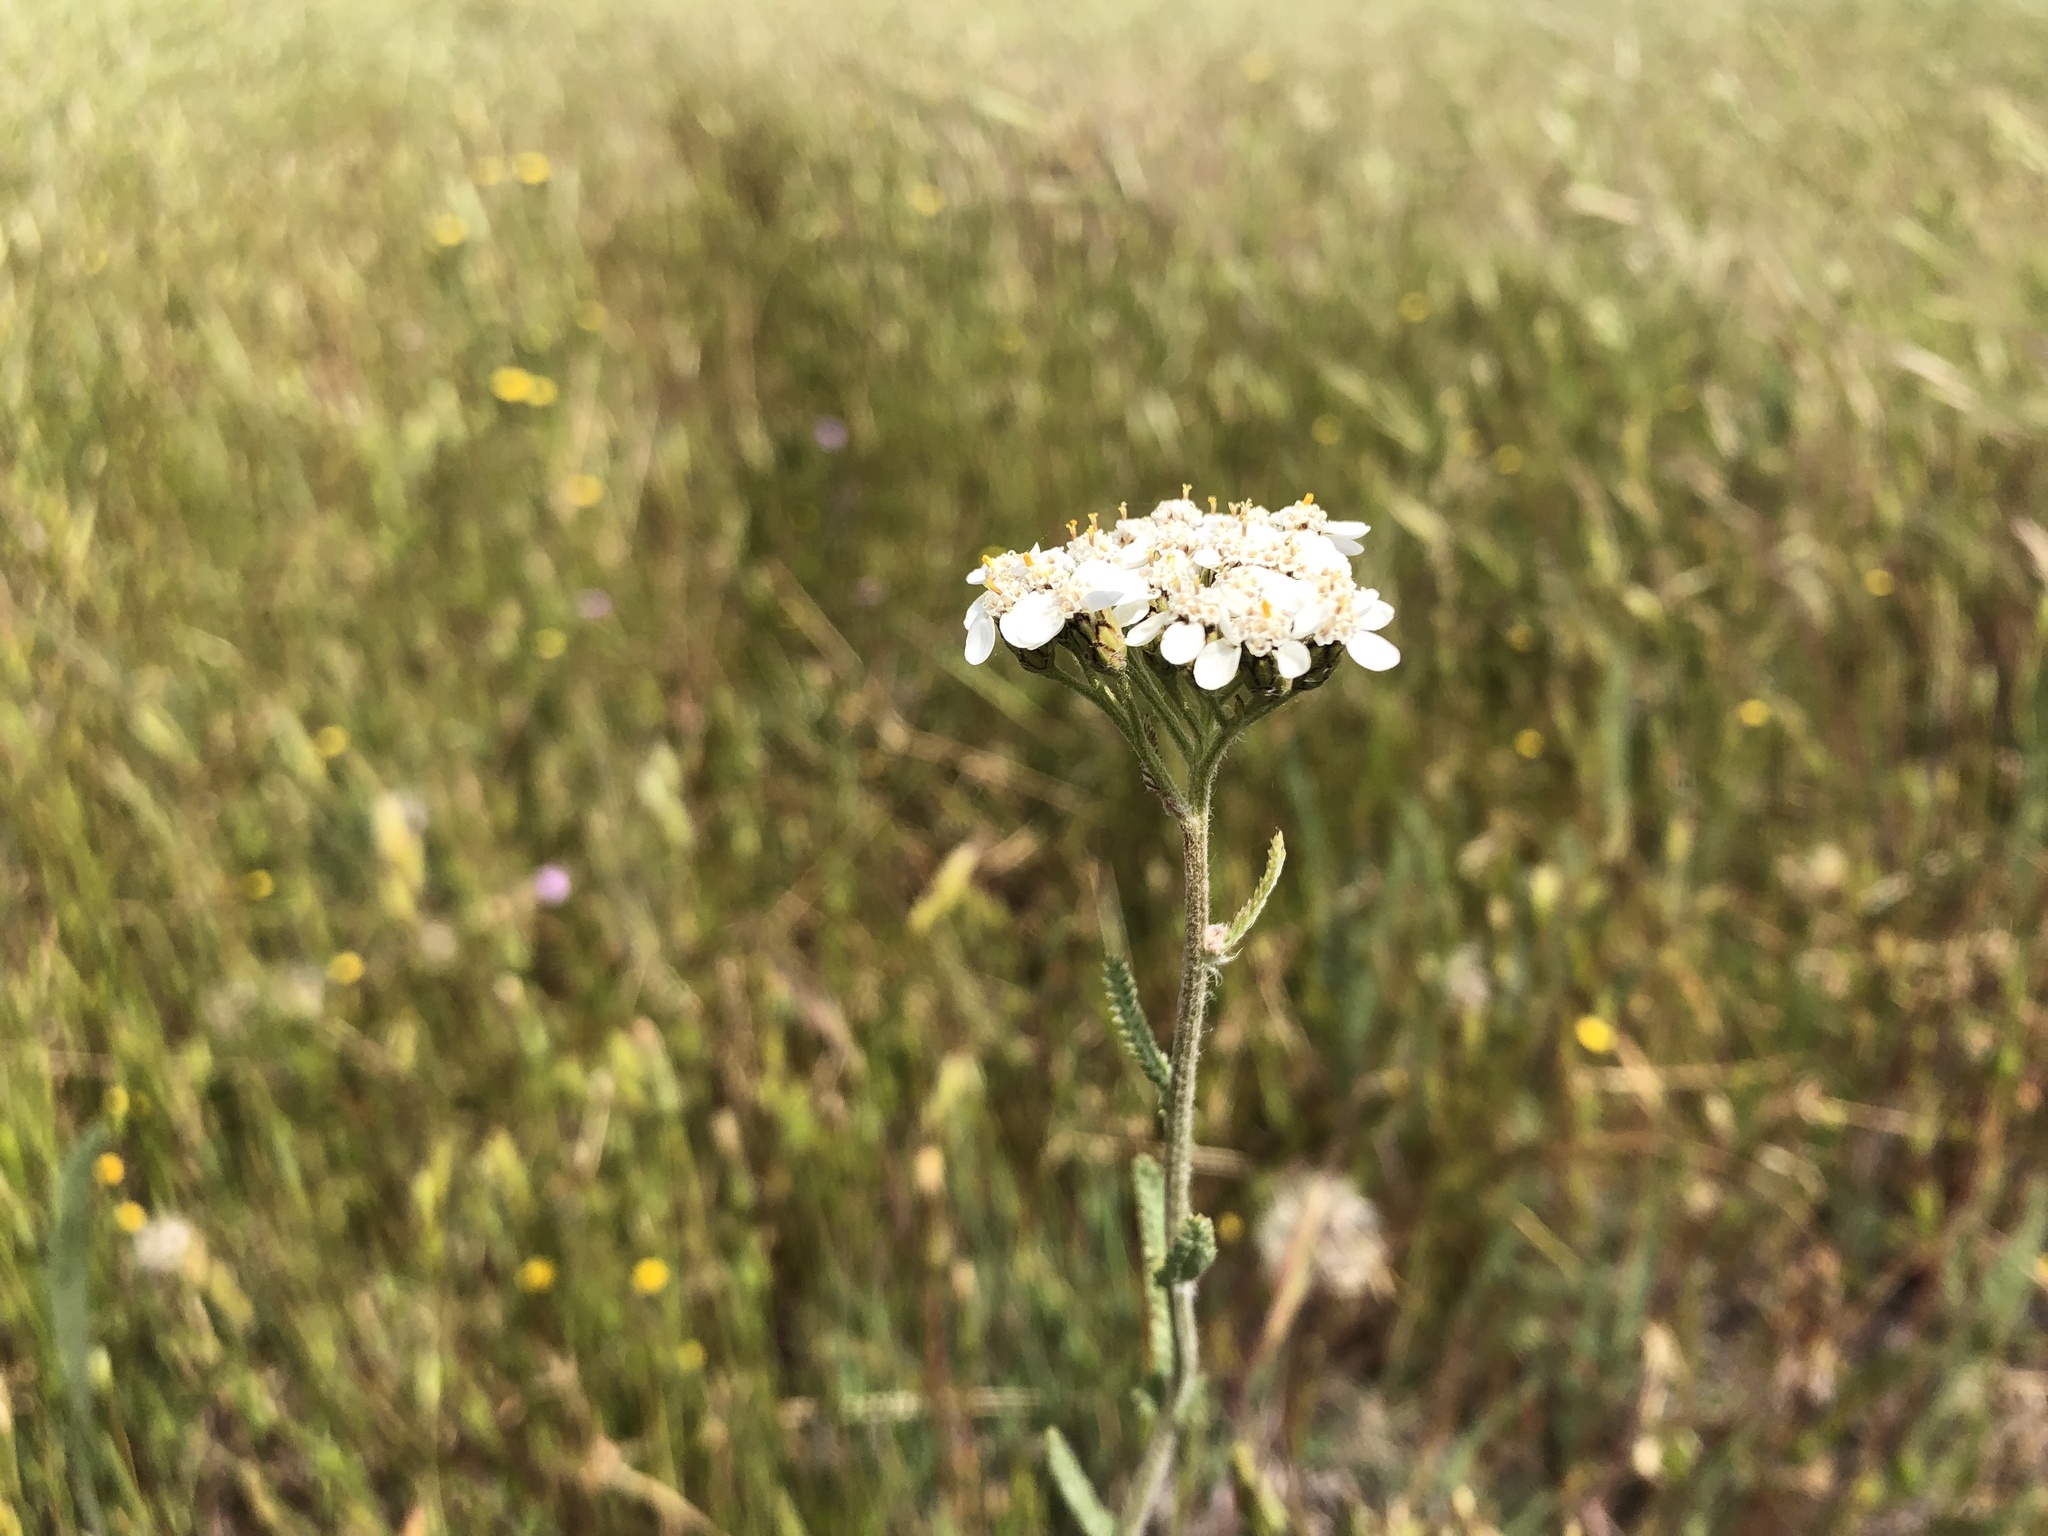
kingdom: Plantae
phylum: Tracheophyta
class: Magnoliopsida
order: Asterales
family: Asteraceae
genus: Achillea
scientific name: Achillea millefolium
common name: Yarrow
